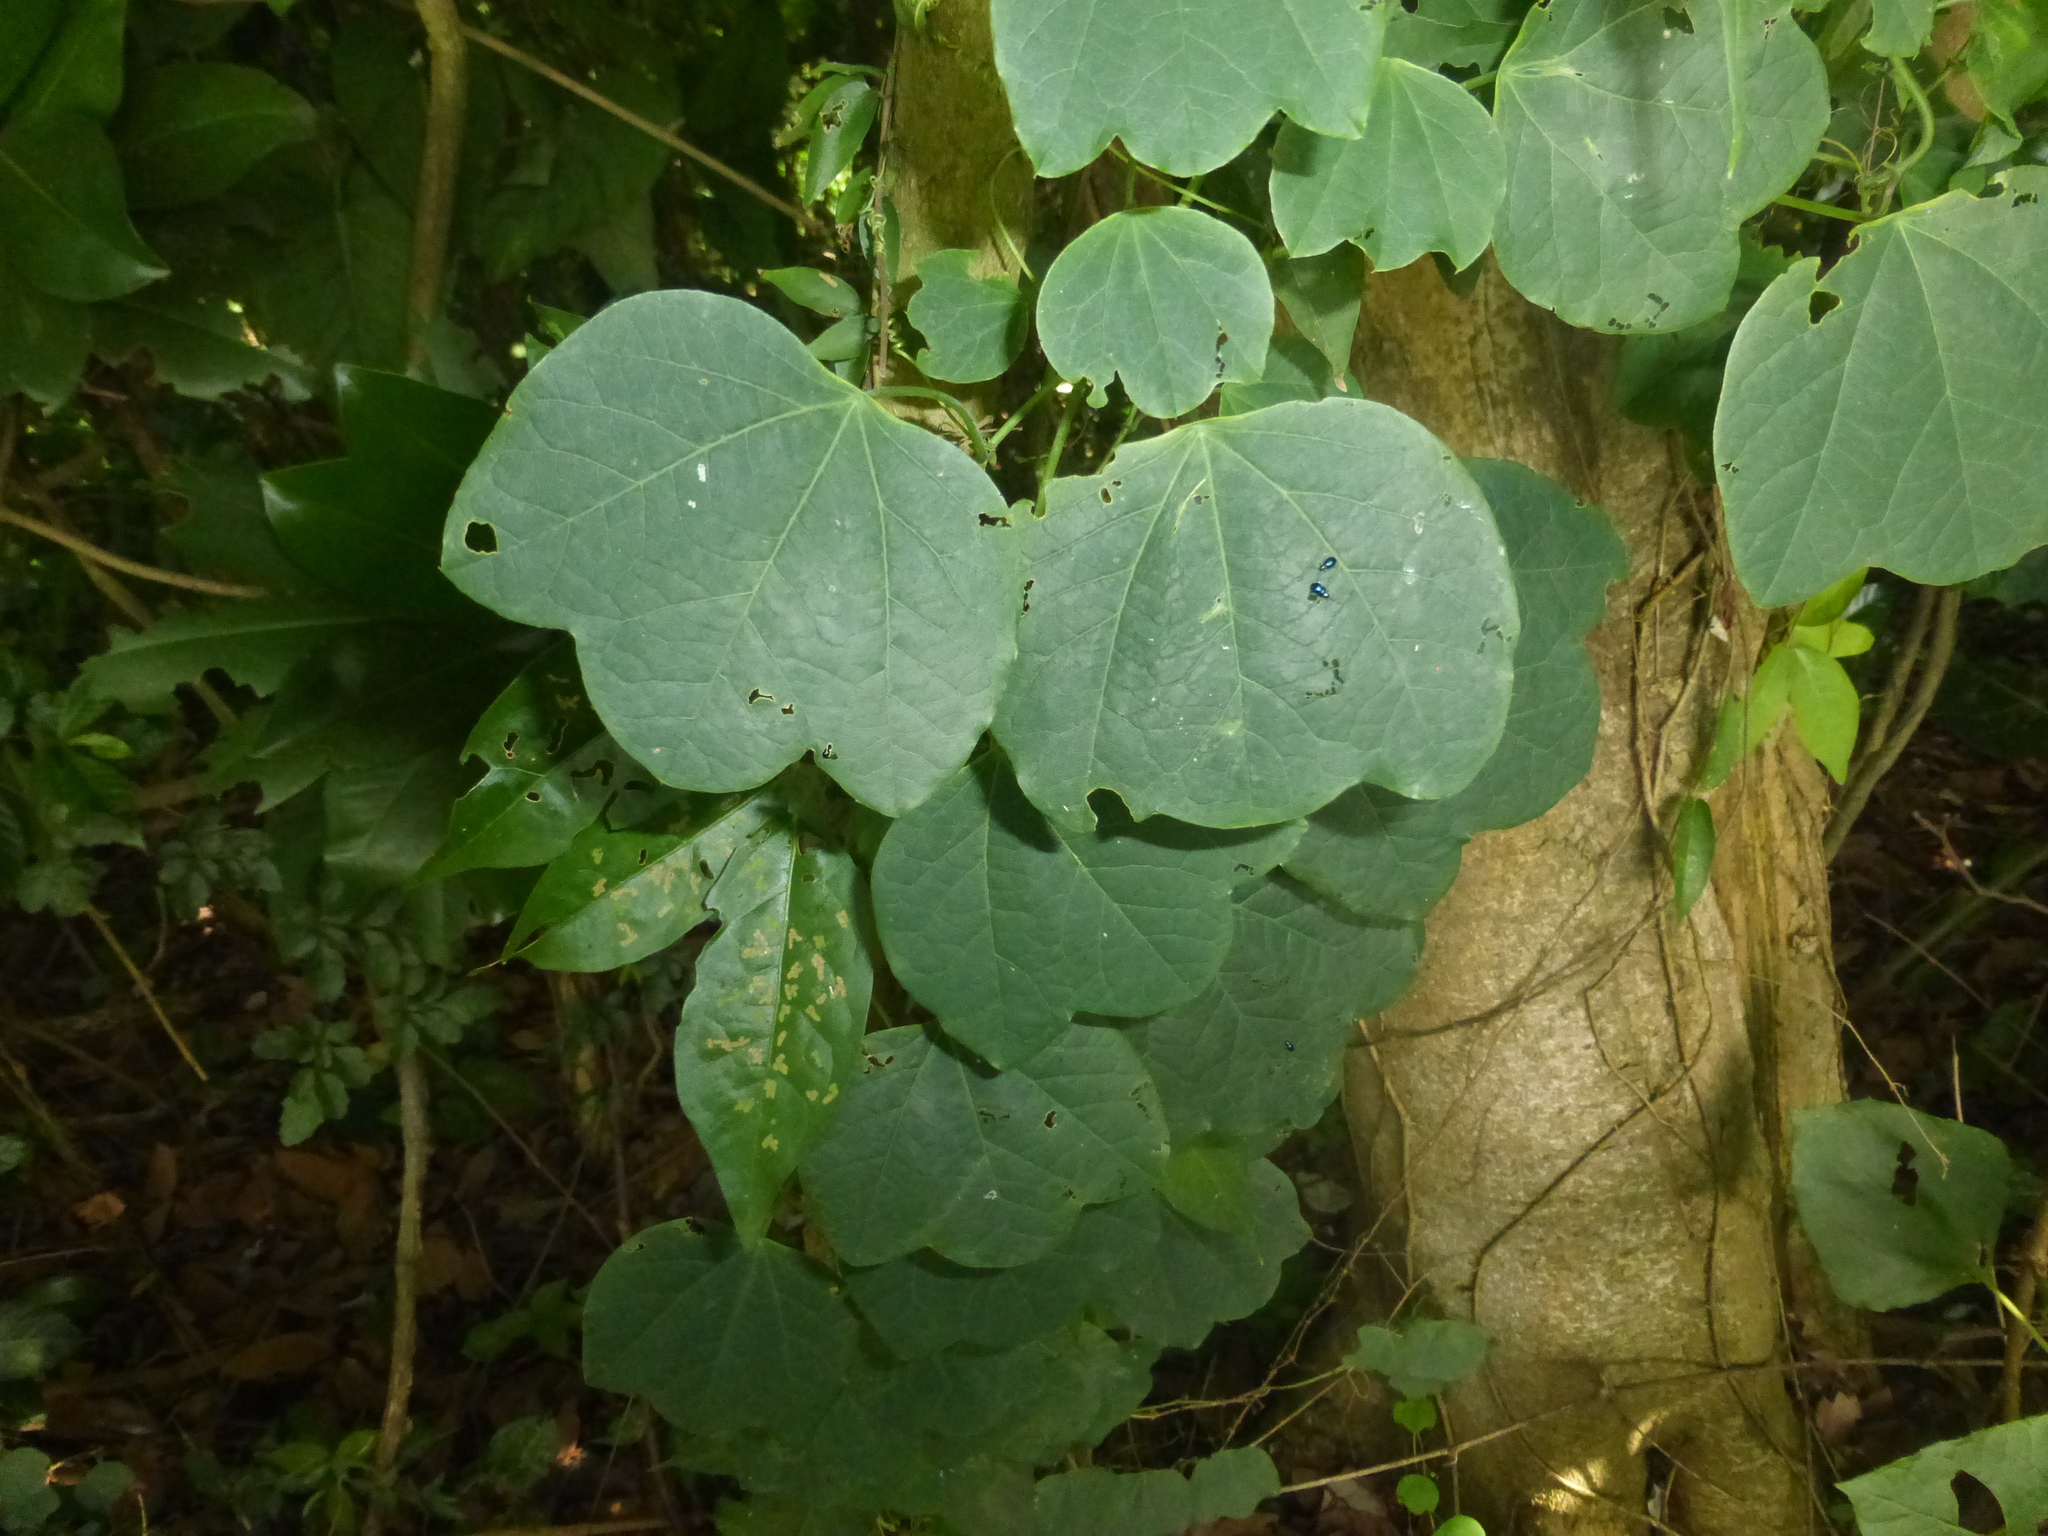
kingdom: Plantae
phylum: Tracheophyta
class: Magnoliopsida
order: Malpighiales
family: Passifloraceae
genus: Passiflora
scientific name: Passiflora filipes
